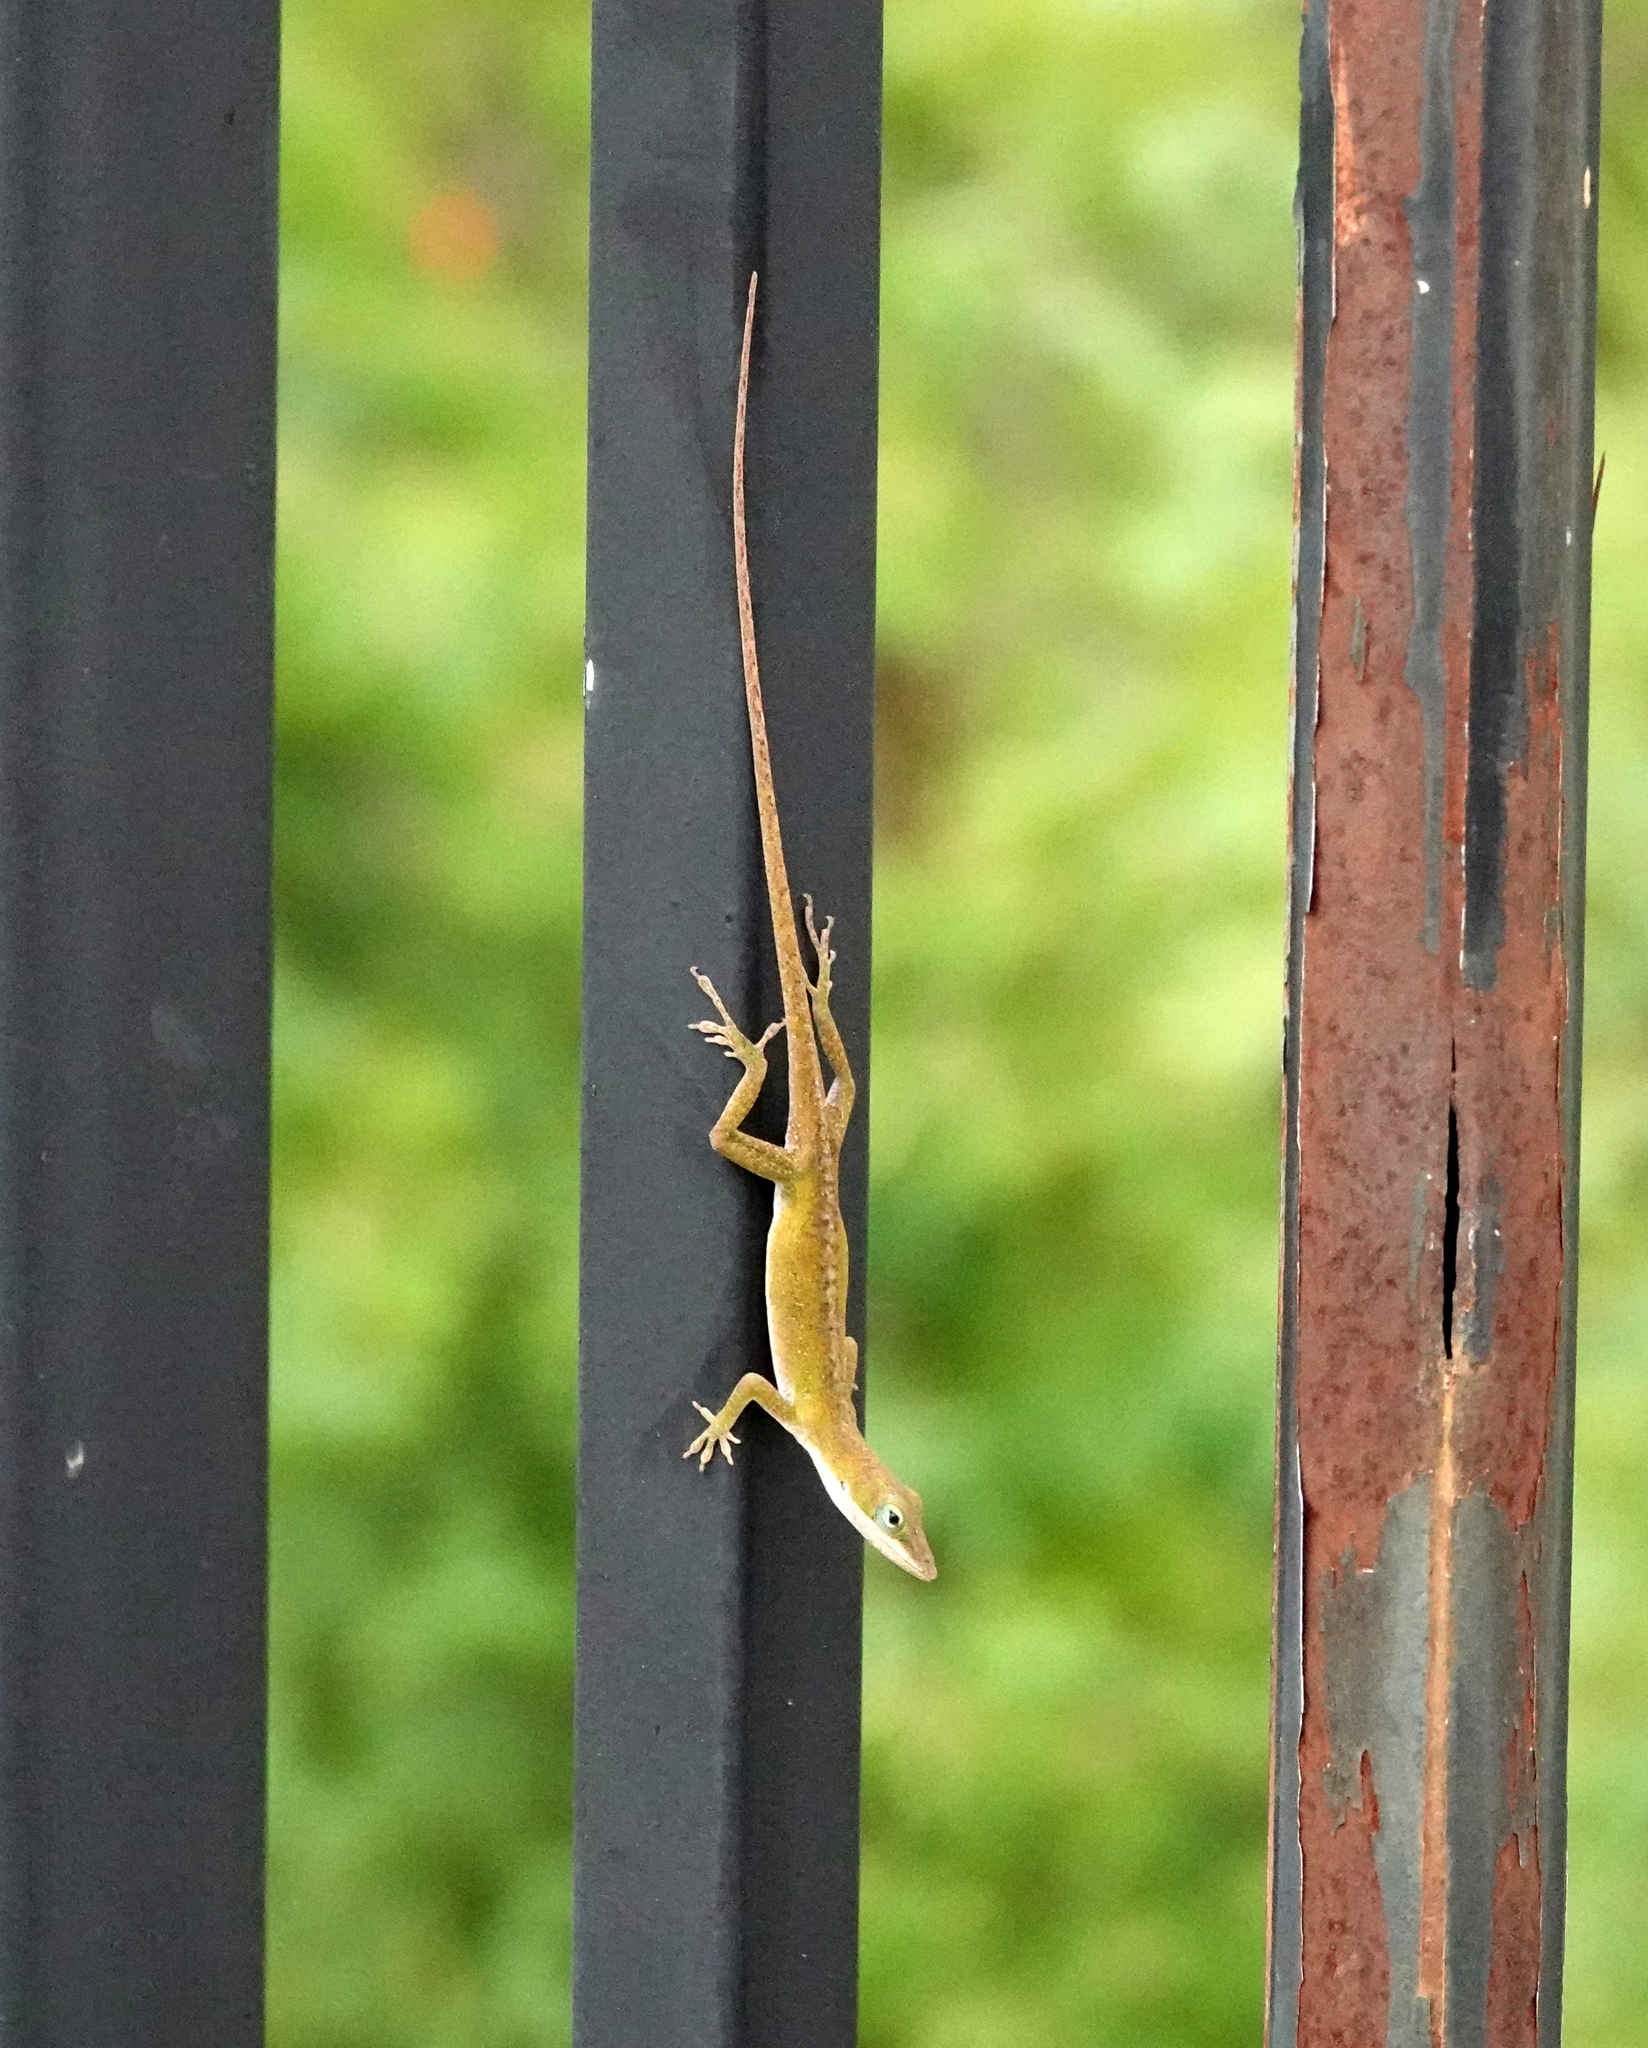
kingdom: Animalia
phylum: Chordata
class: Squamata
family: Dactyloidae
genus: Anolis
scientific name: Anolis carolinensis
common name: Green anole
